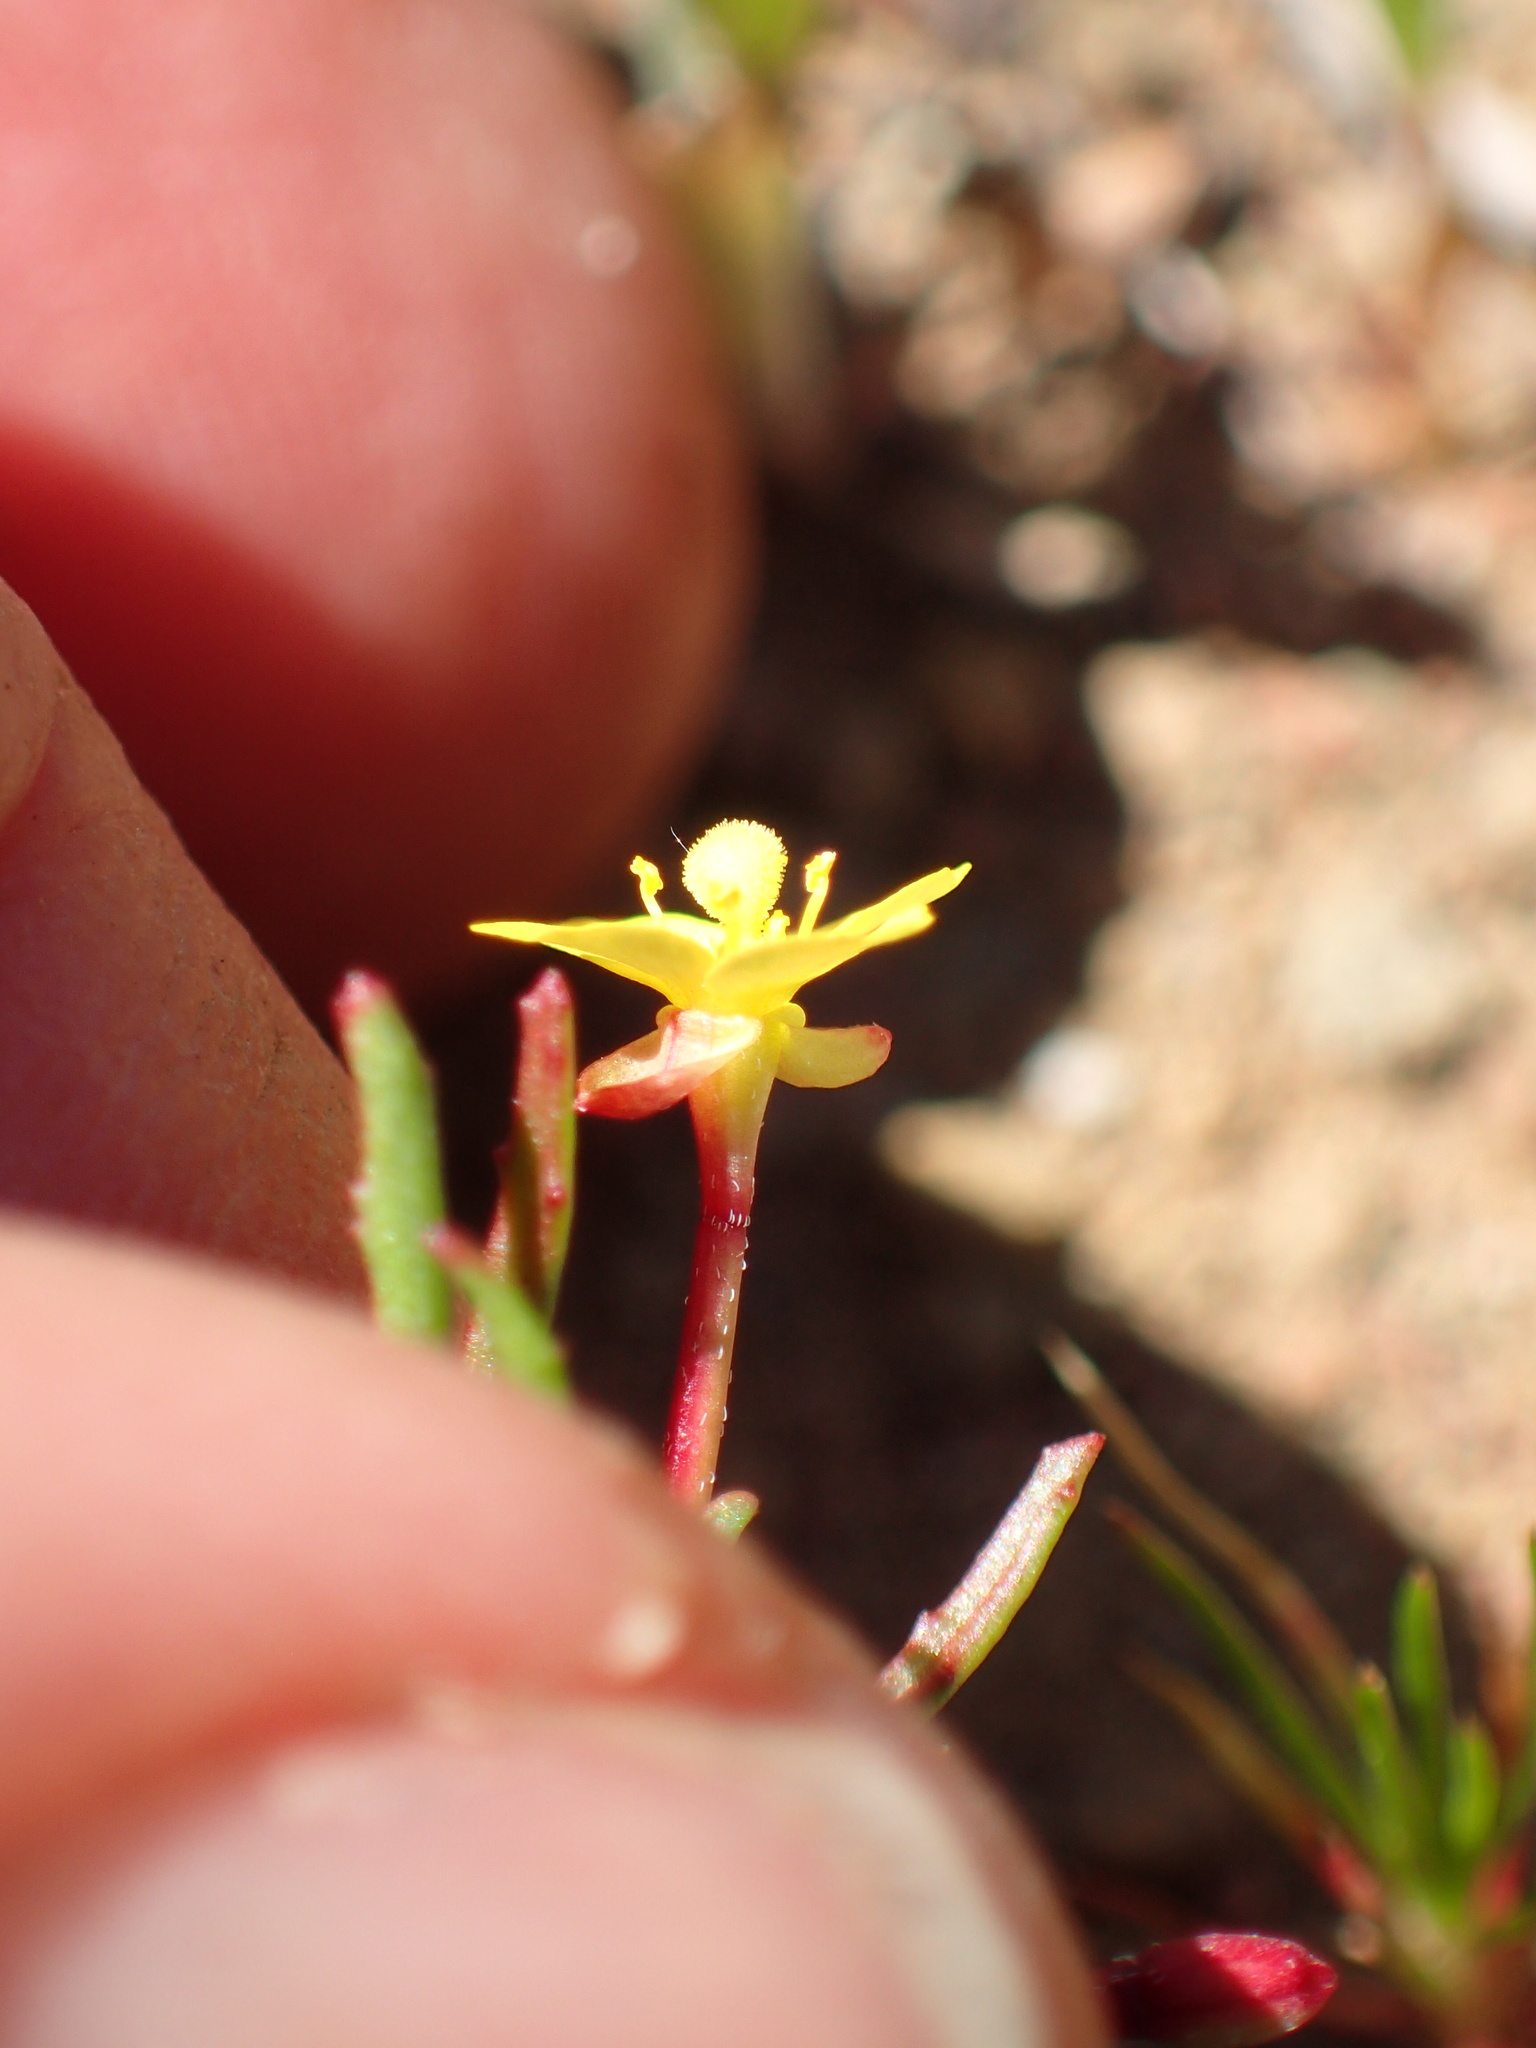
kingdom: Plantae
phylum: Tracheophyta
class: Magnoliopsida
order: Myrtales
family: Onagraceae
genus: Camissonia
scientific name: Camissonia strigulosa
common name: Contorted-primrose
